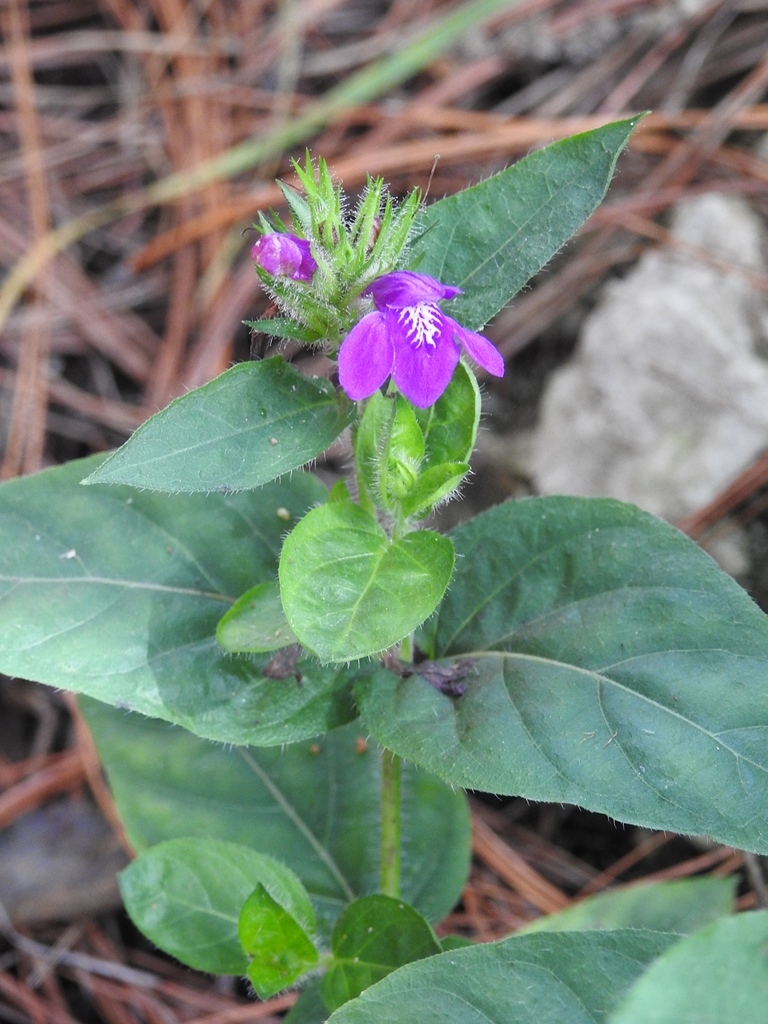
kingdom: Plantae
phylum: Tracheophyta
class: Magnoliopsida
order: Lamiales
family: Acanthaceae
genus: Justicia
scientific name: Justicia clinopodium
